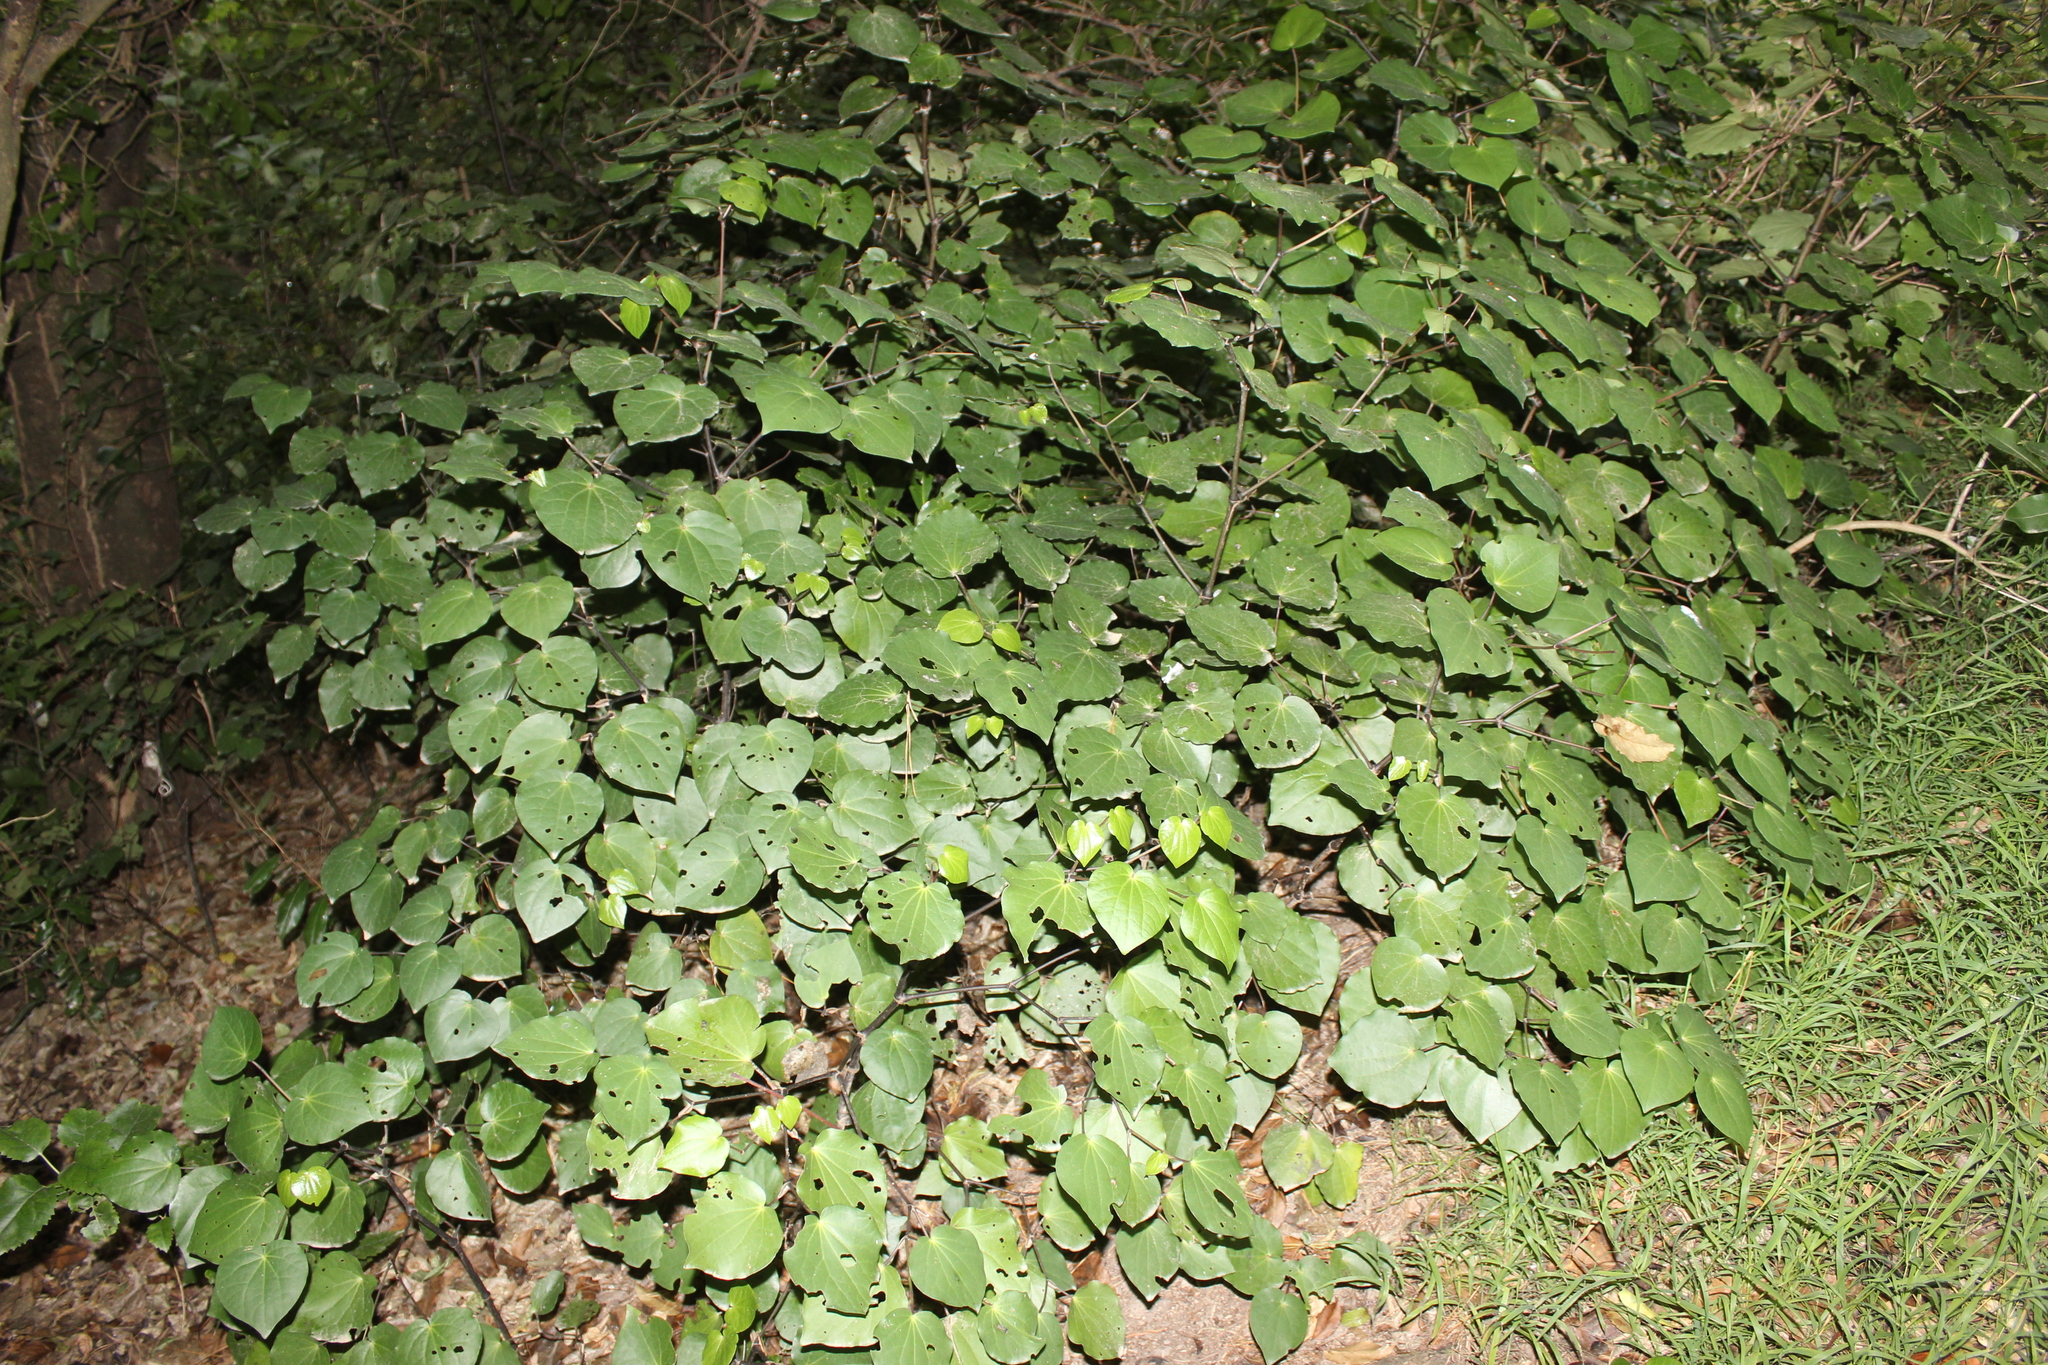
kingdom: Plantae
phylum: Tracheophyta
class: Magnoliopsida
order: Piperales
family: Piperaceae
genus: Macropiper
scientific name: Macropiper excelsum
